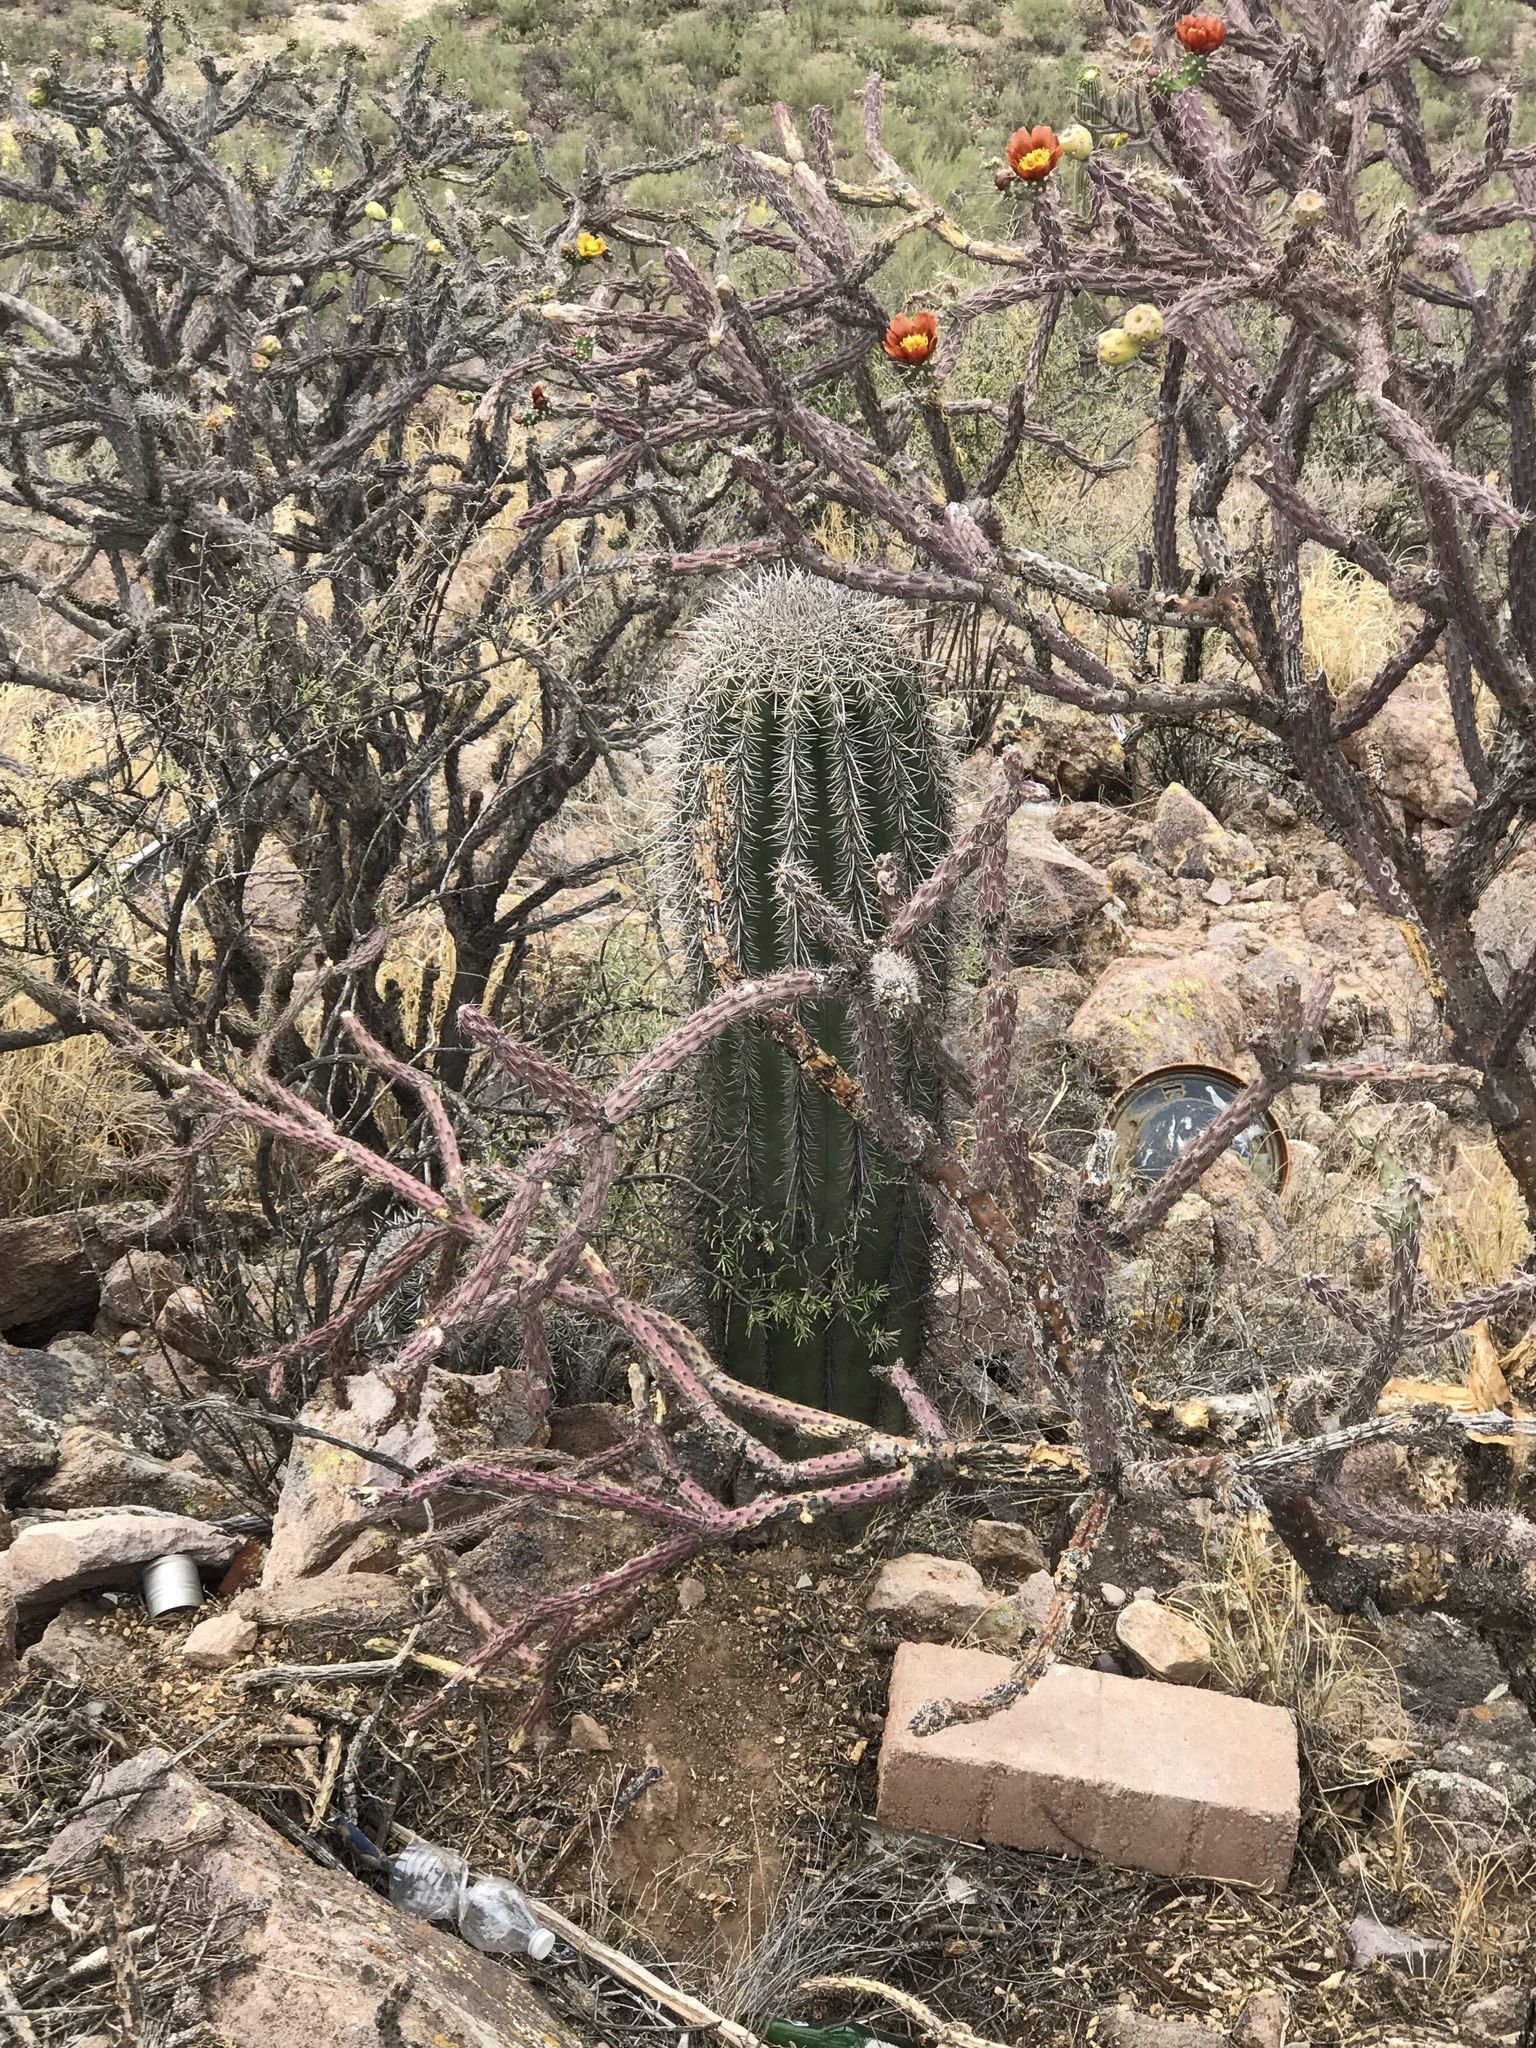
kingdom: Plantae
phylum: Tracheophyta
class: Magnoliopsida
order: Caryophyllales
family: Cactaceae
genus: Carnegiea
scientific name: Carnegiea gigantea
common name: Saguaro
